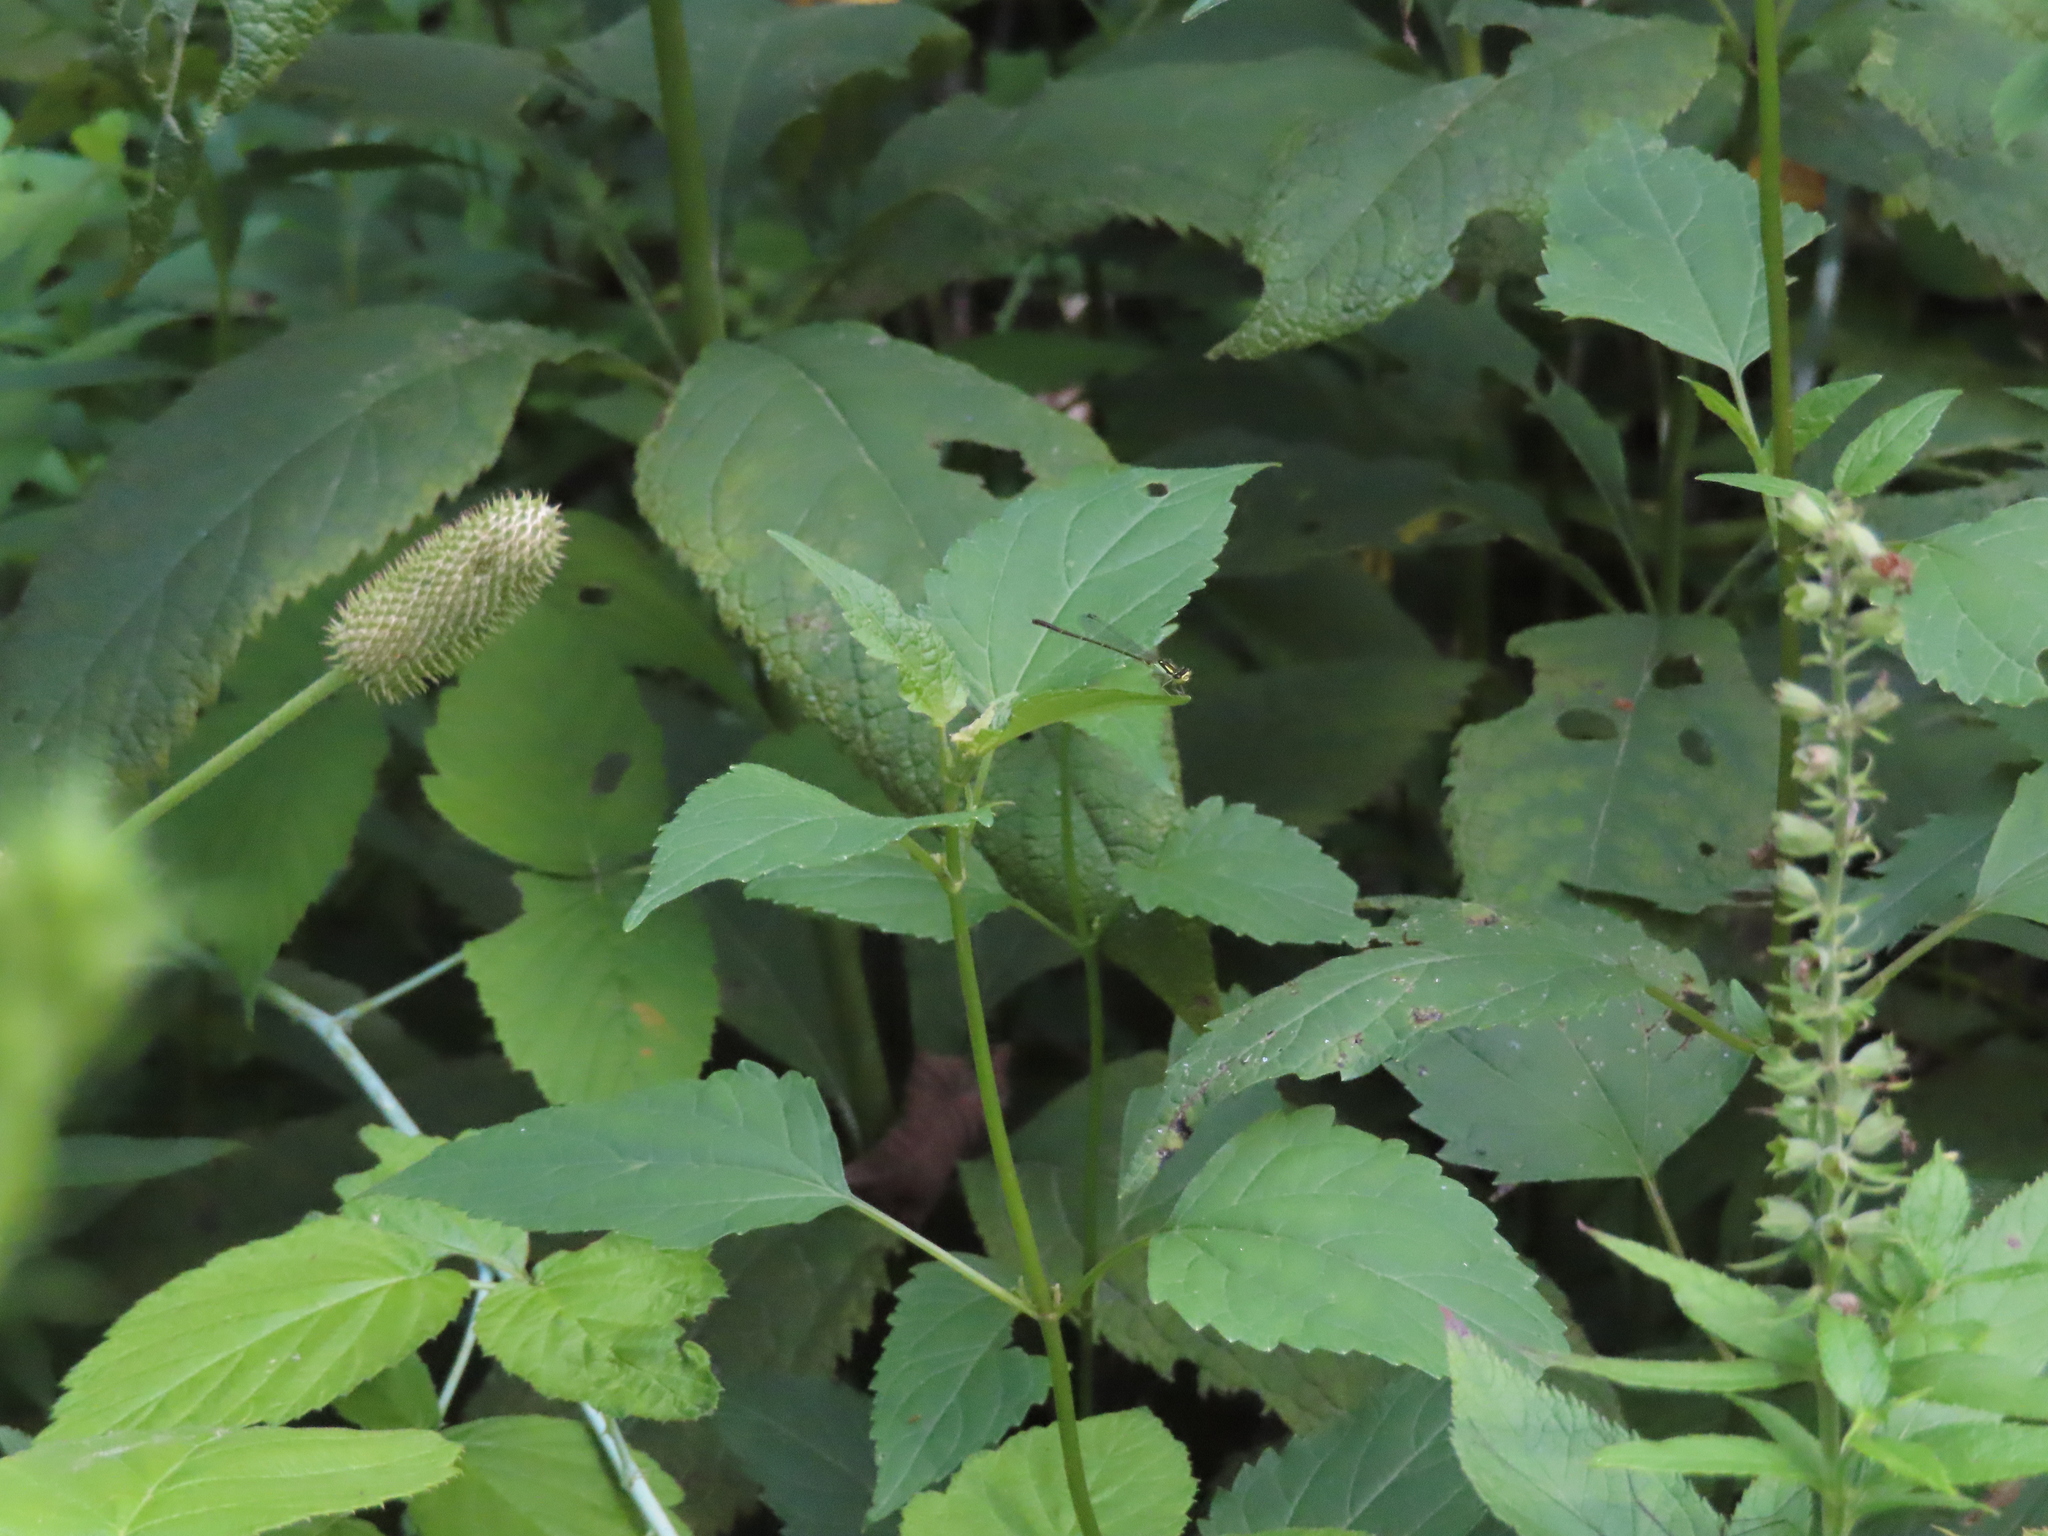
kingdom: Animalia
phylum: Arthropoda
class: Insecta
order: Odonata
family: Coenagrionidae
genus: Ischnura
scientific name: Ischnura posita
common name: Fragile forktail
